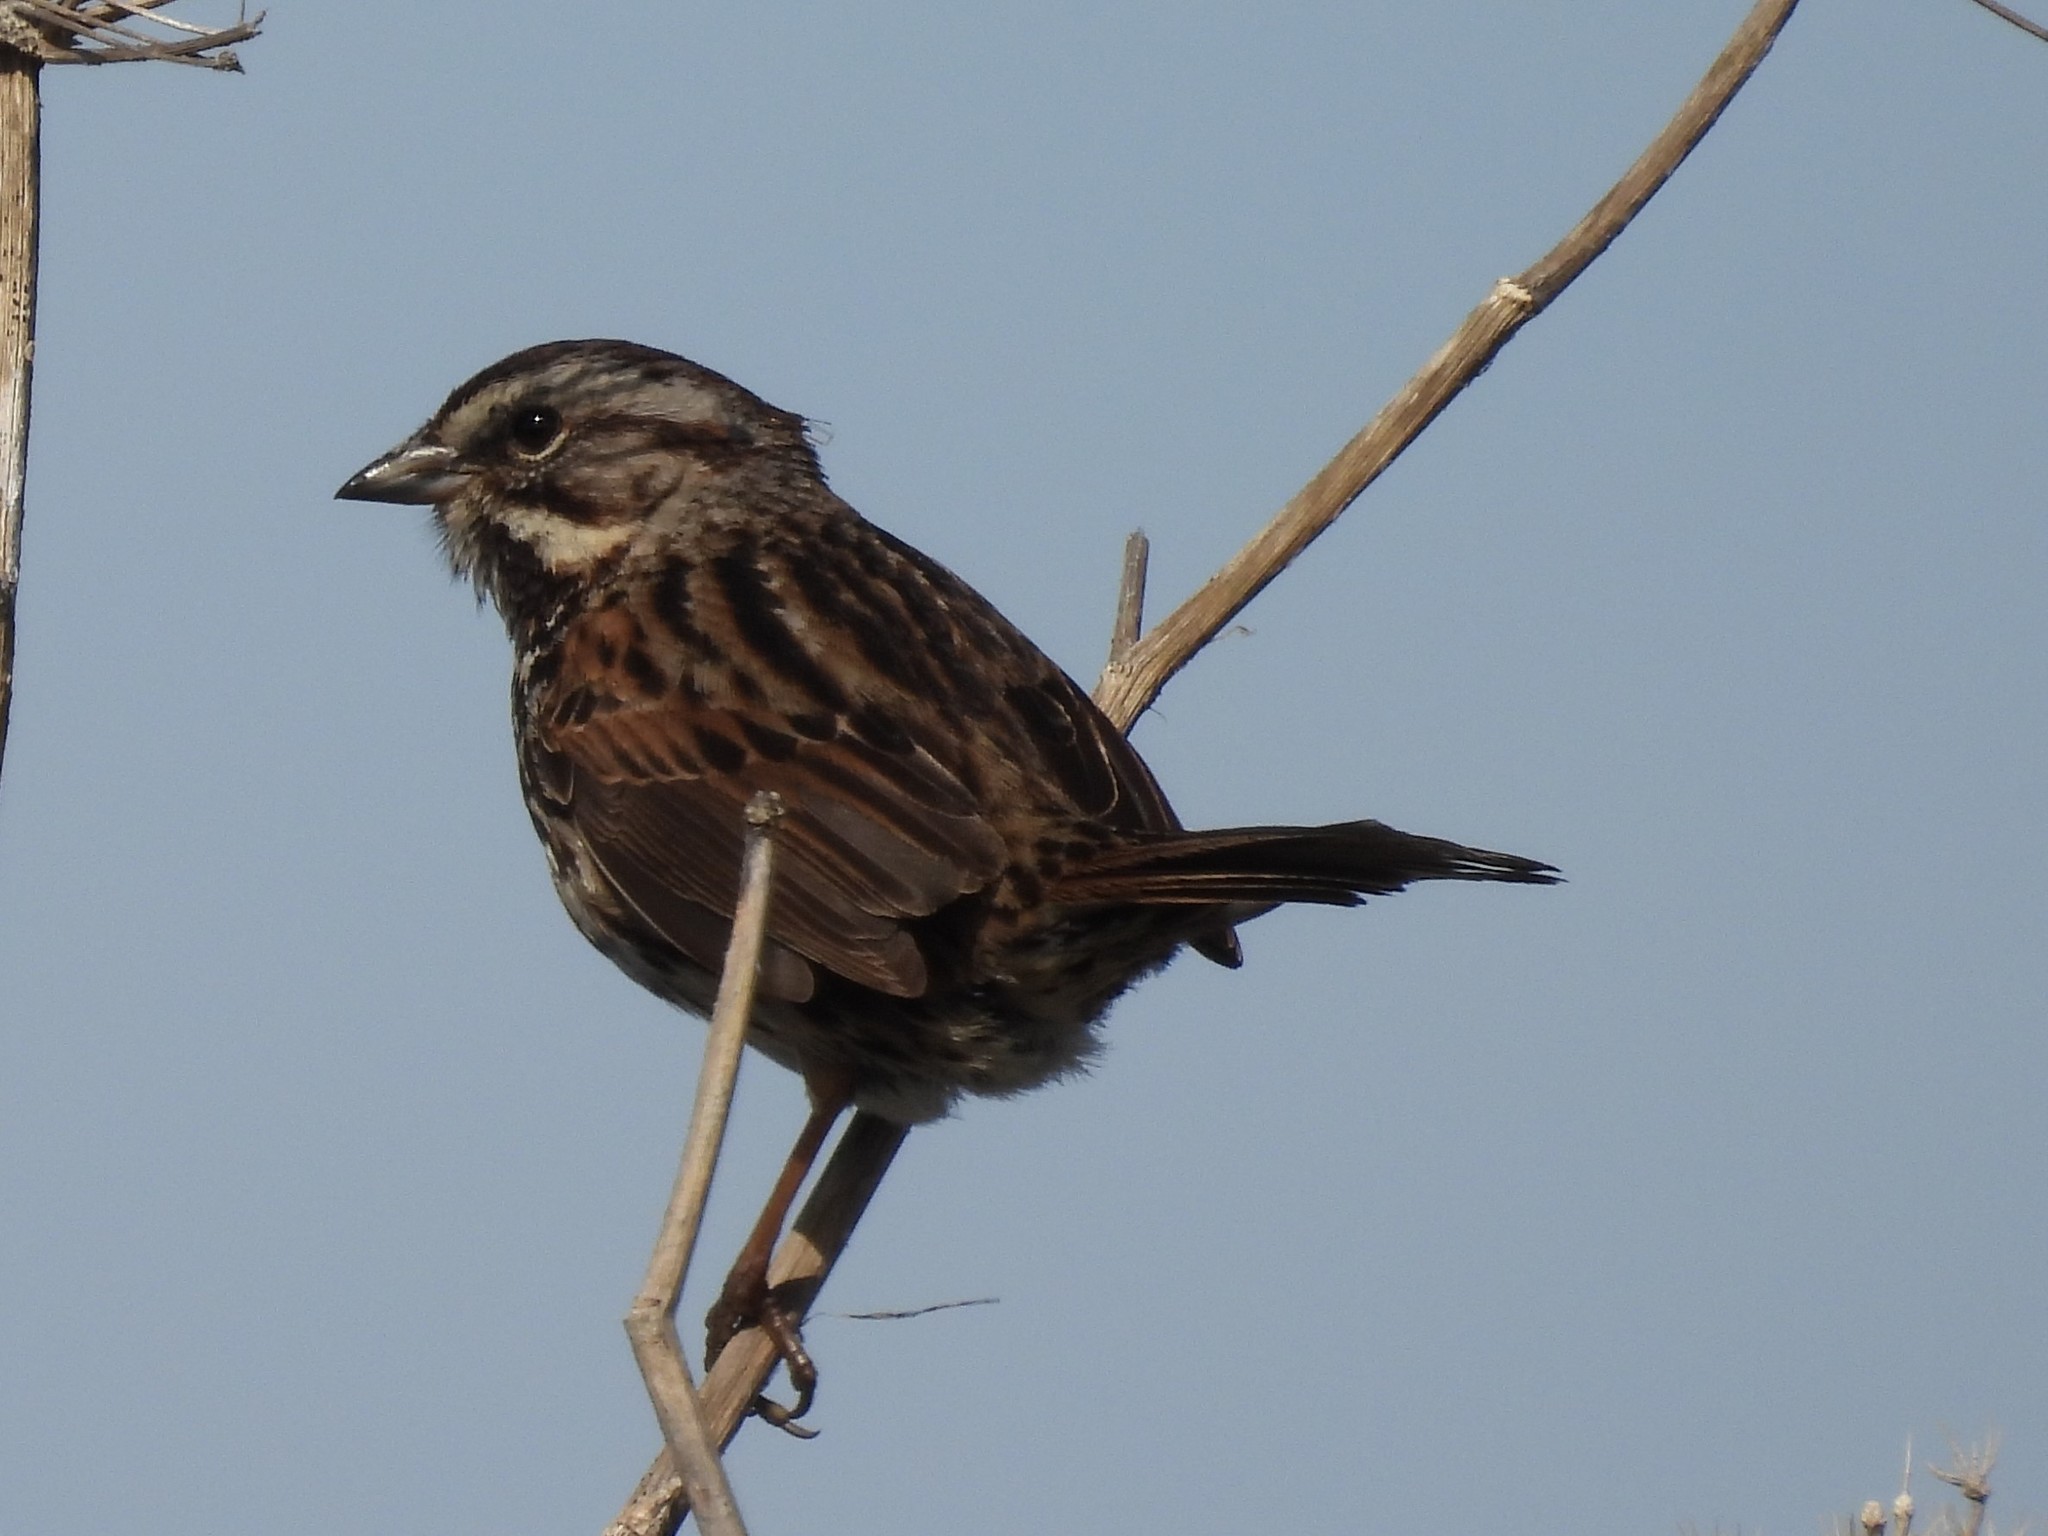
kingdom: Animalia
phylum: Chordata
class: Aves
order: Passeriformes
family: Passerellidae
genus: Melospiza
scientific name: Melospiza melodia
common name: Song sparrow
